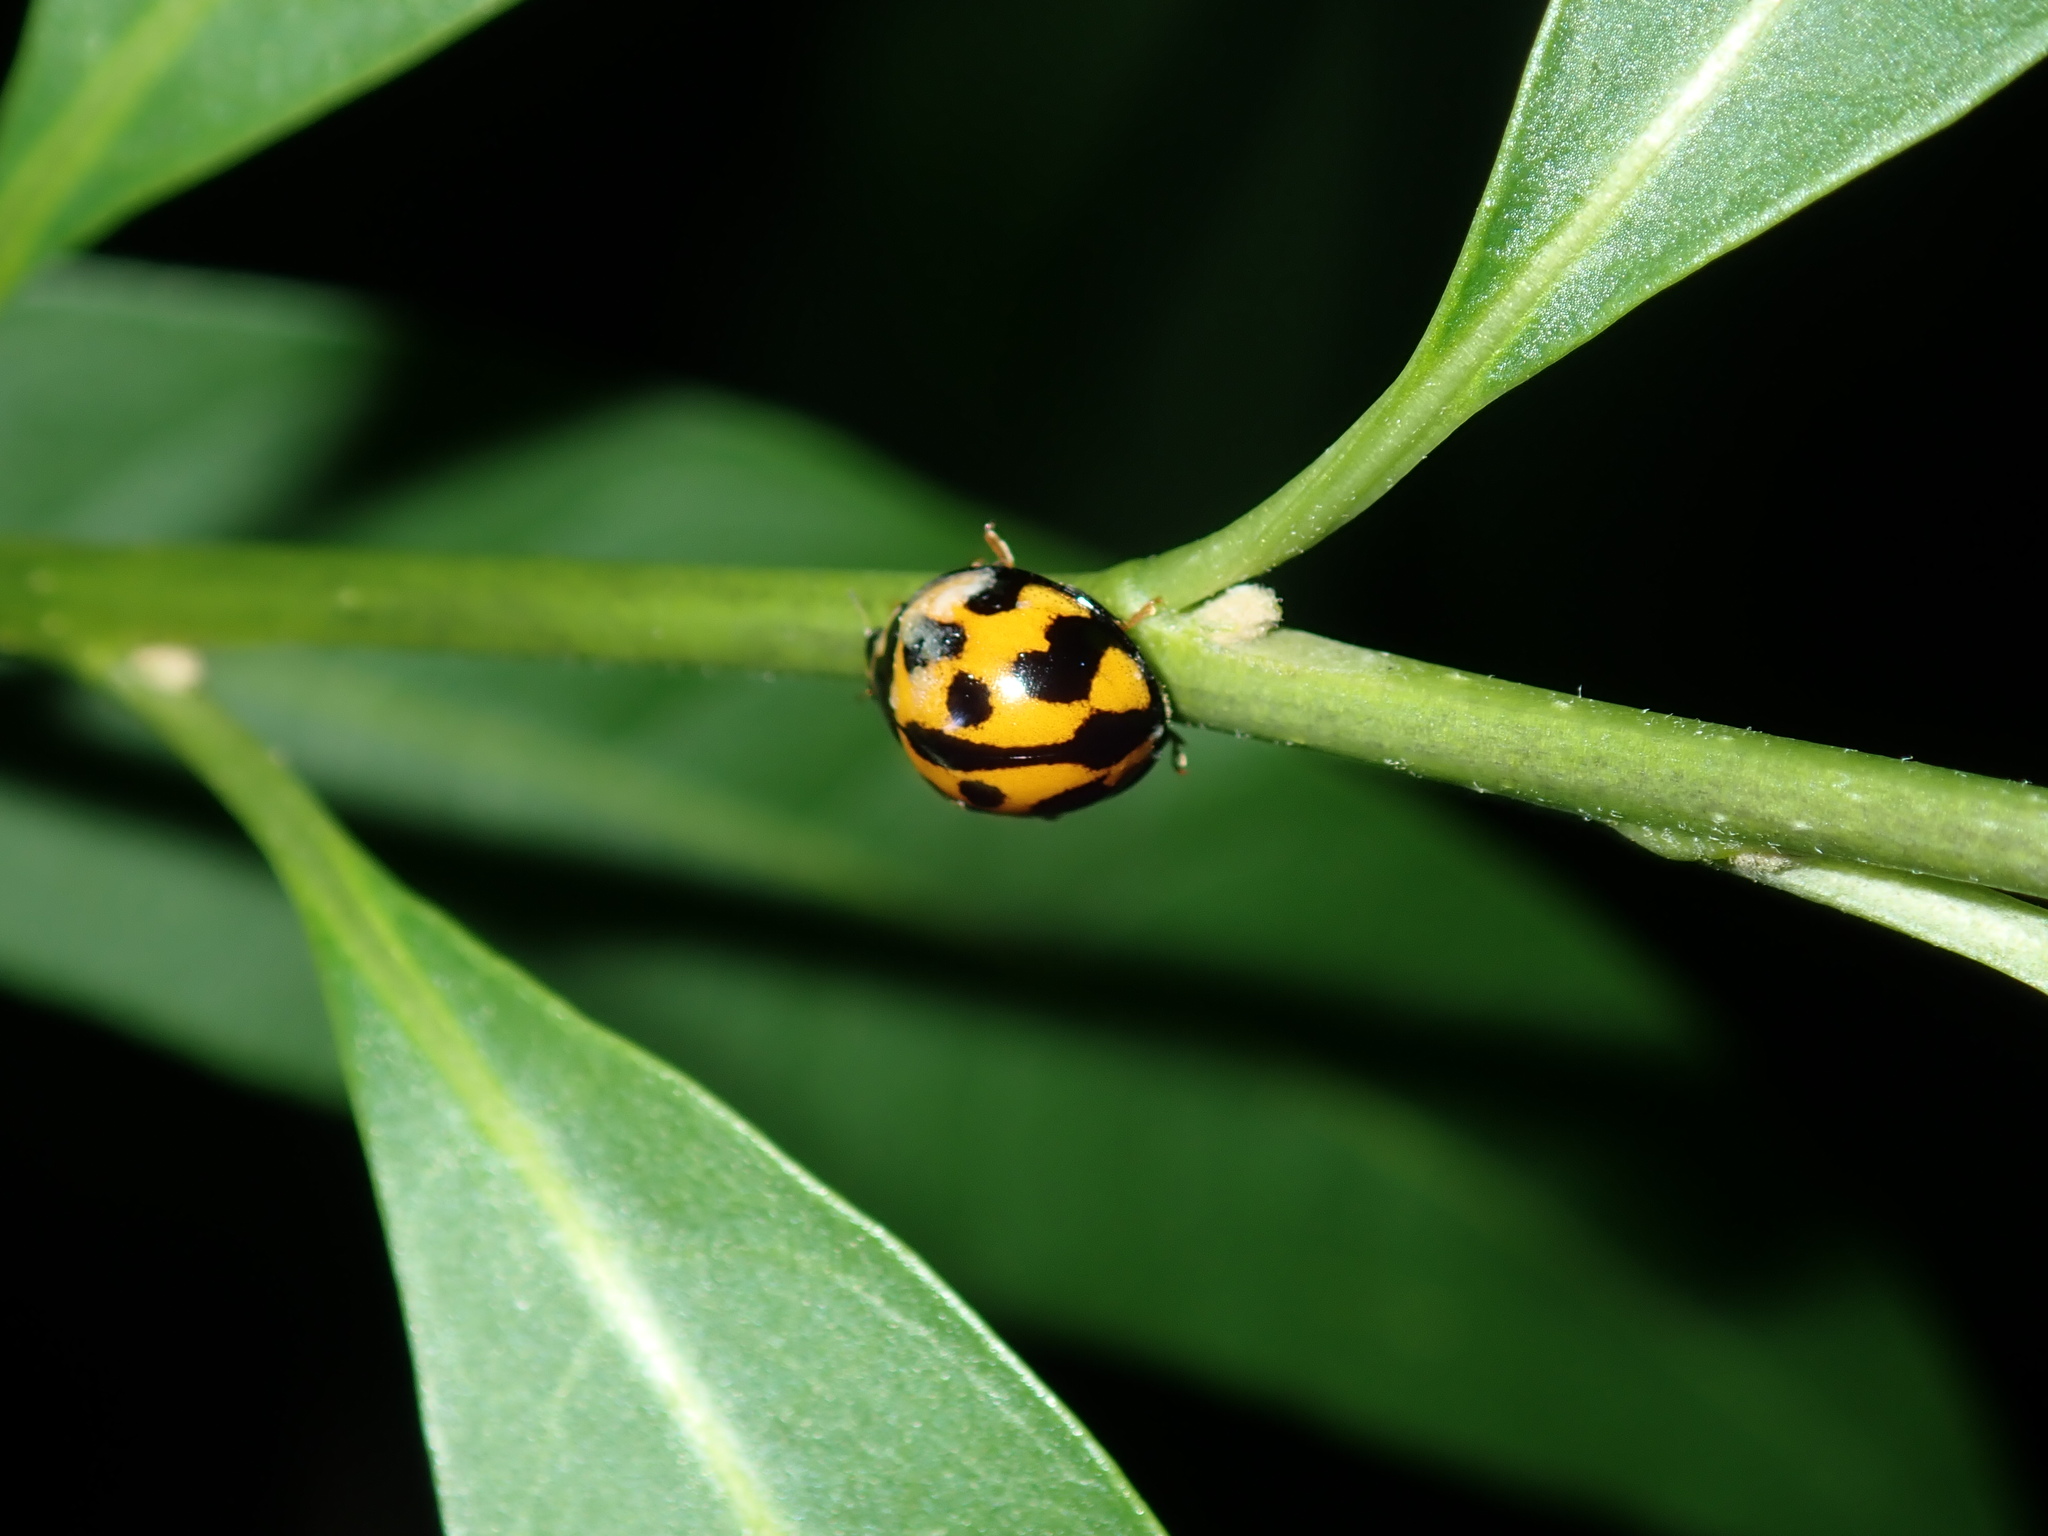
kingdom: Animalia
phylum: Arthropoda
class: Insecta
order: Coleoptera
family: Coccinellidae
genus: Coelophora
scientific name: Coelophora inaequalis
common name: Common australian lady beetle
